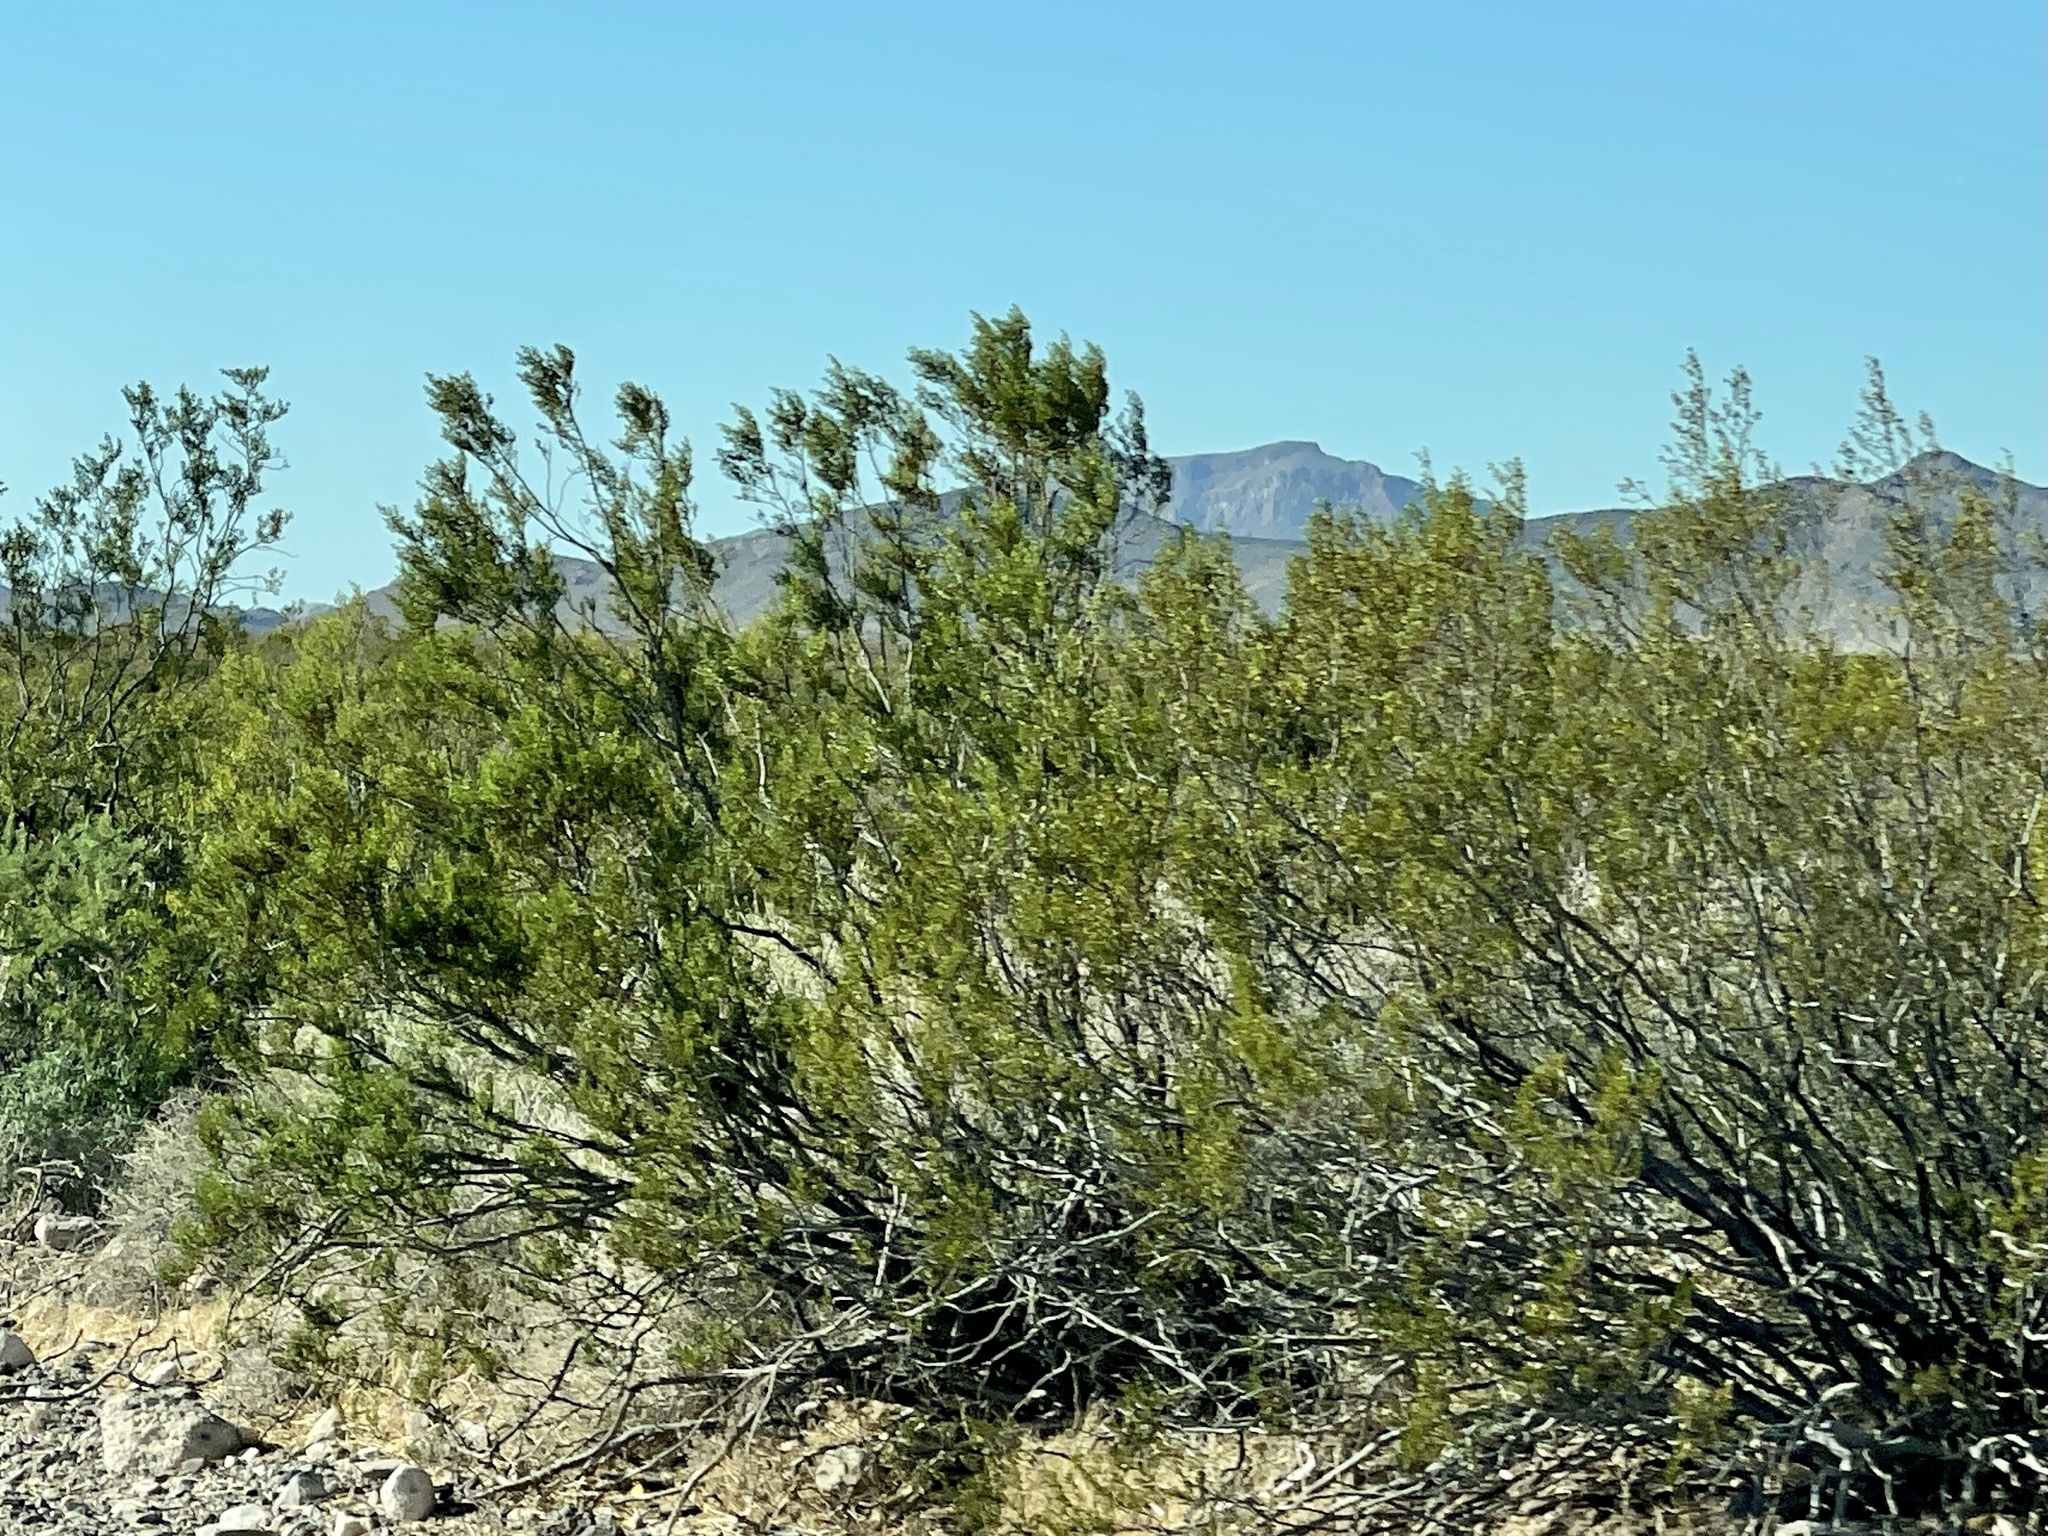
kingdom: Plantae
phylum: Tracheophyta
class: Magnoliopsida
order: Zygophyllales
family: Zygophyllaceae
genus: Larrea
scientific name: Larrea tridentata
